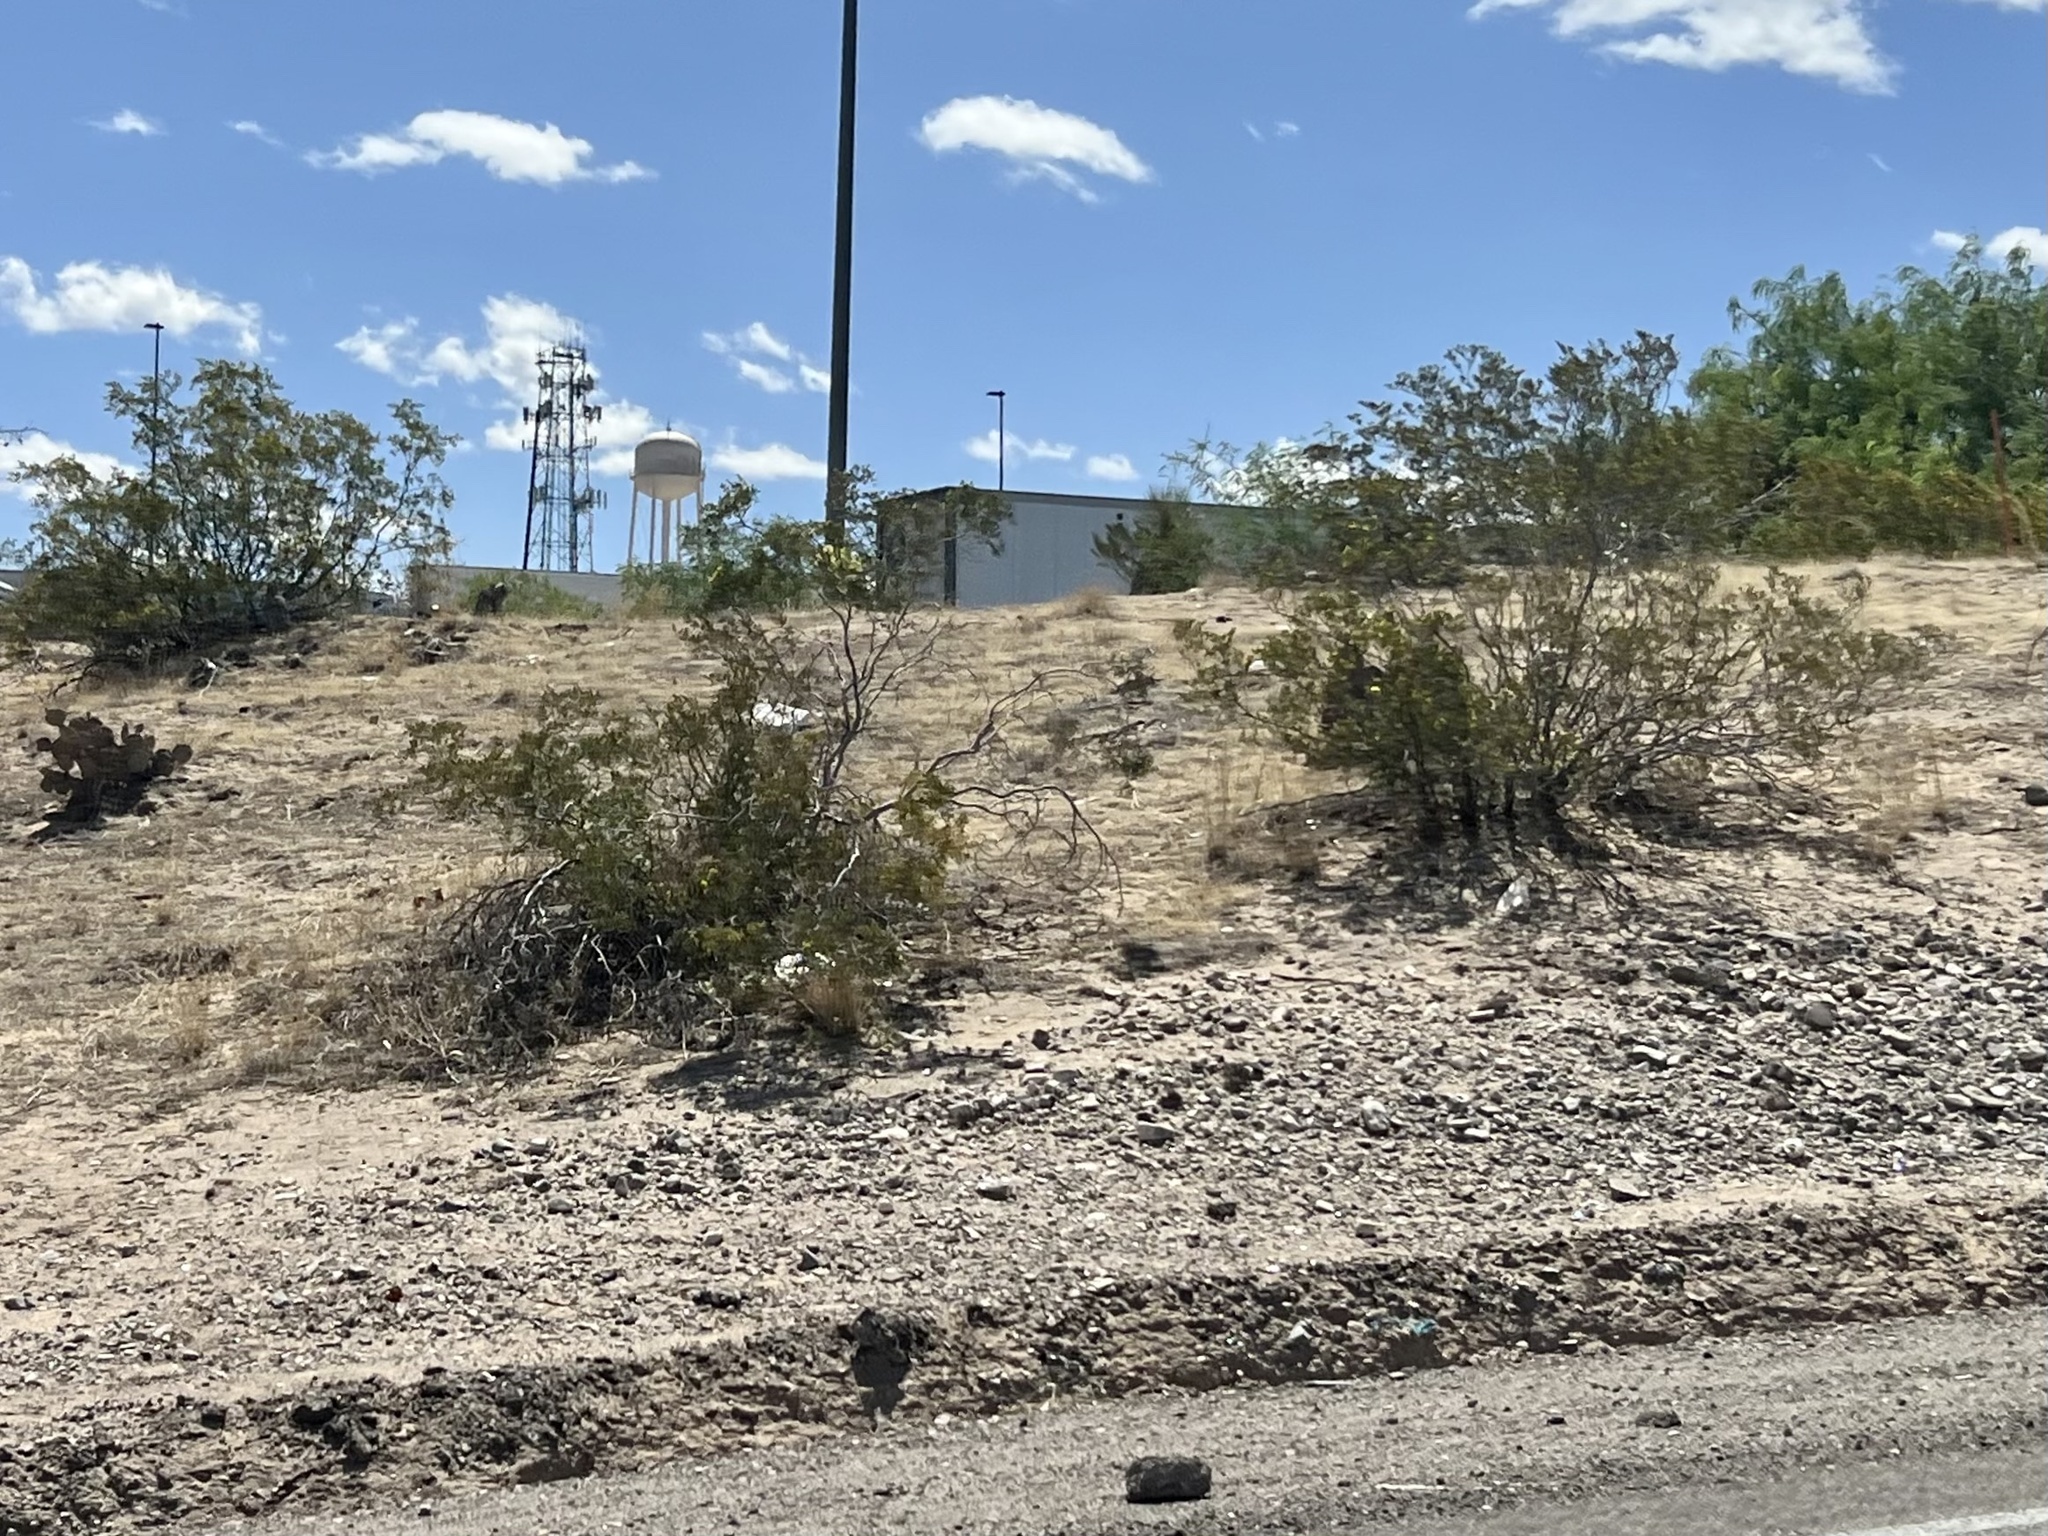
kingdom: Plantae
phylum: Tracheophyta
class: Magnoliopsida
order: Zygophyllales
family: Zygophyllaceae
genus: Larrea
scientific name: Larrea tridentata
